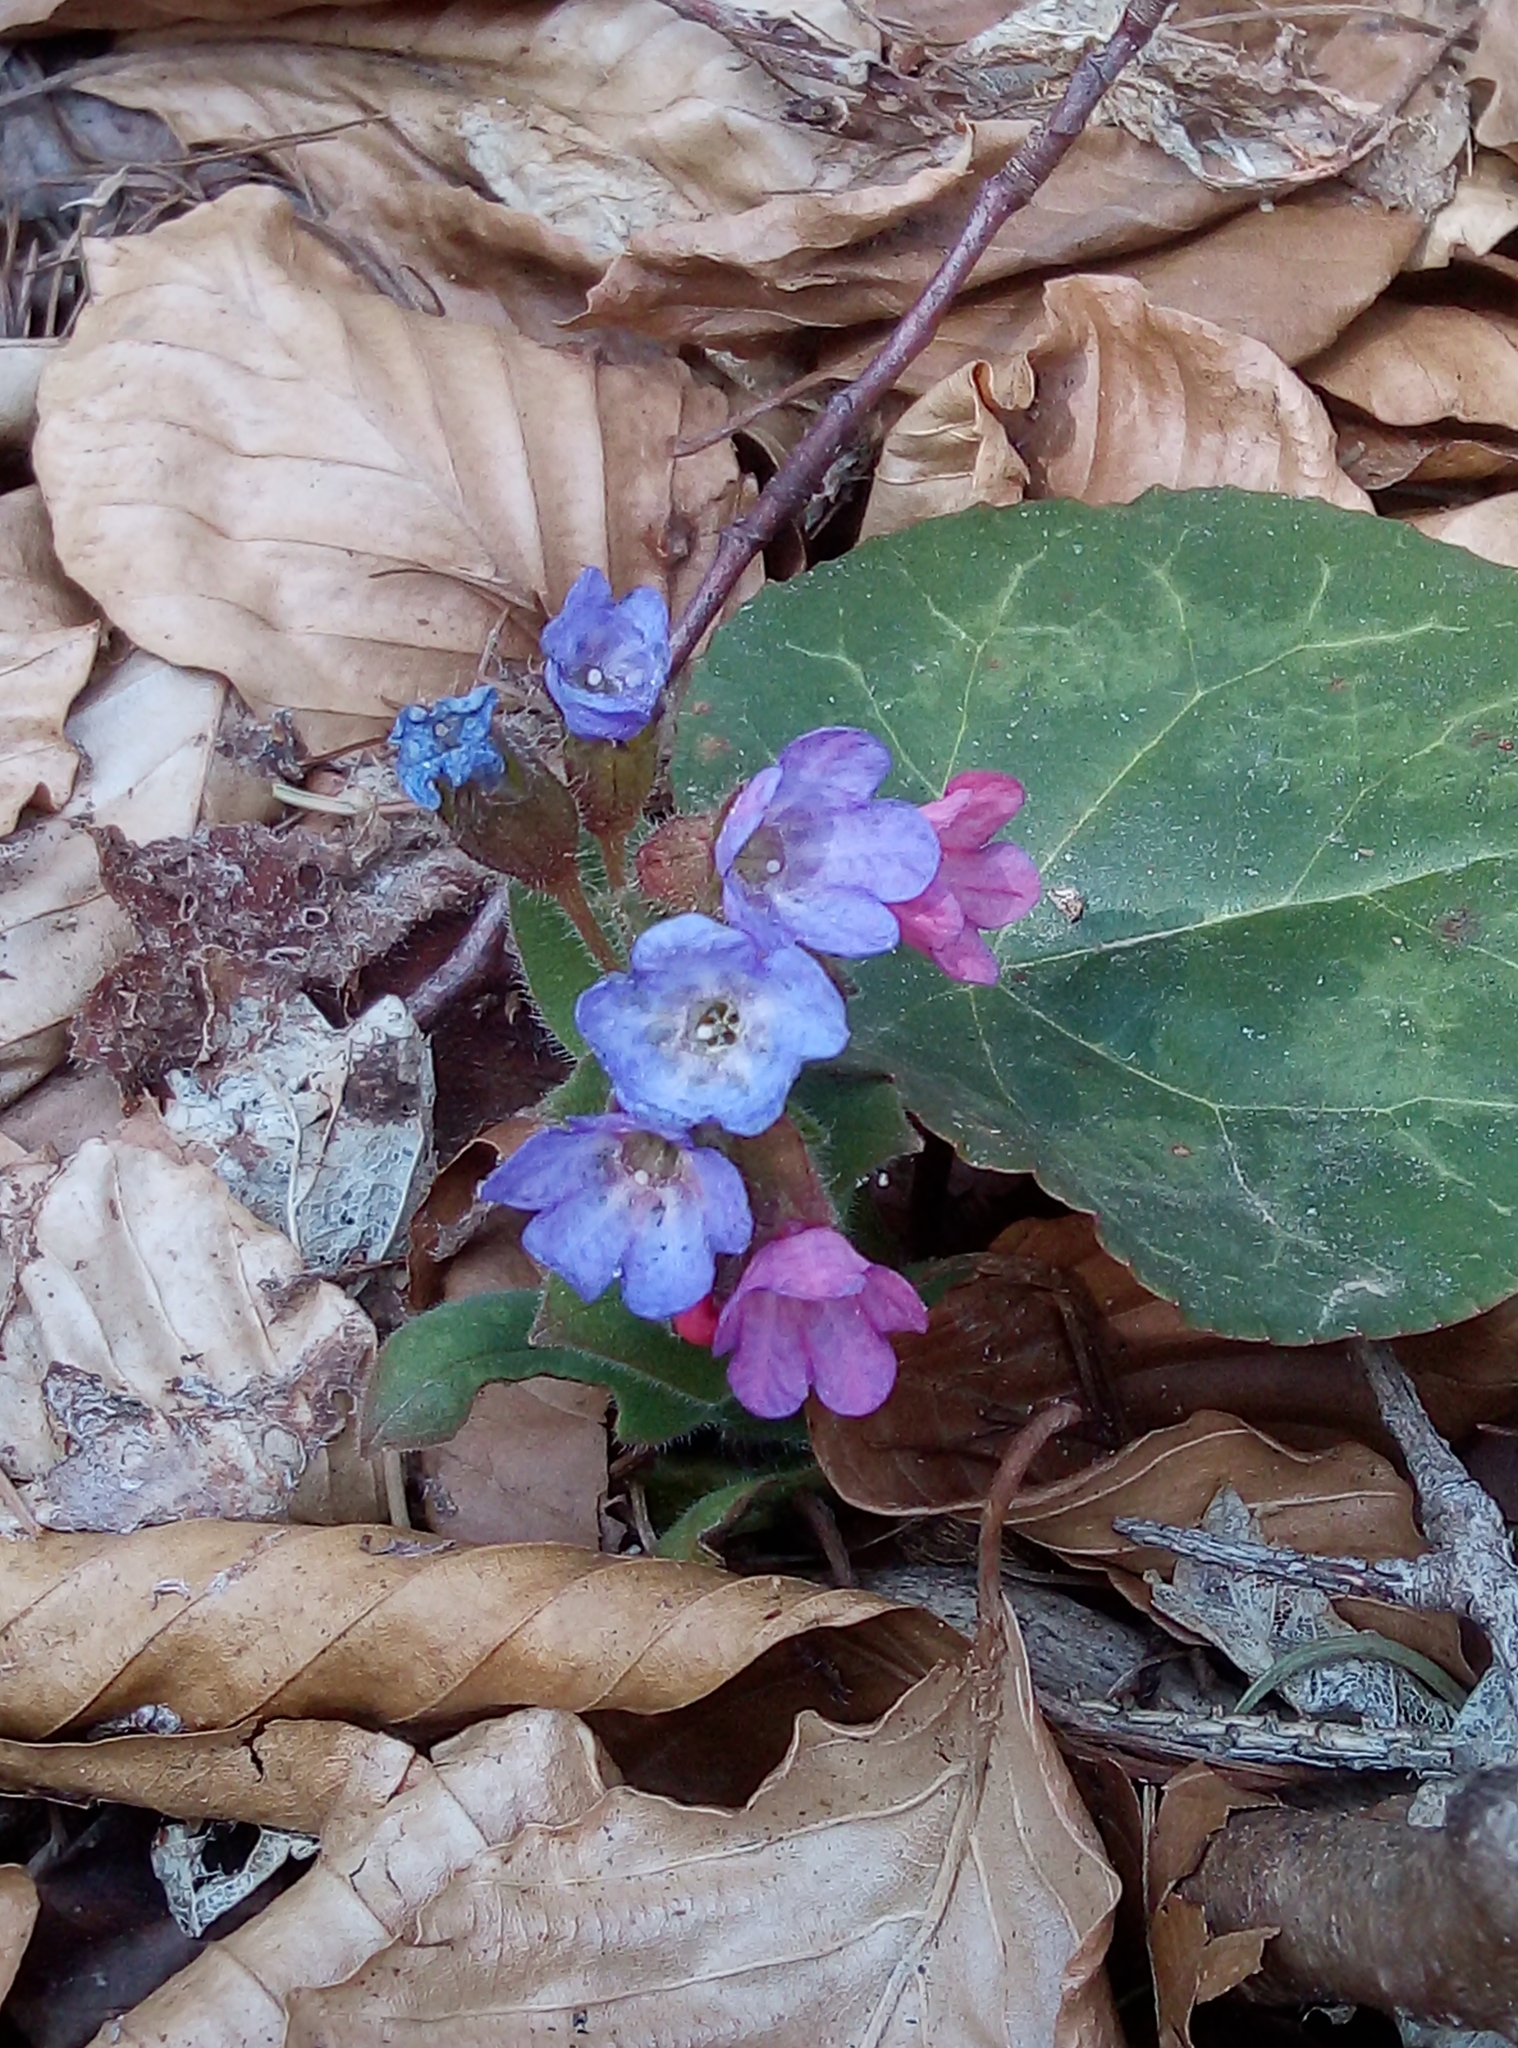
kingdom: Plantae
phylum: Tracheophyta
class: Magnoliopsida
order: Boraginales
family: Boraginaceae
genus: Pulmonaria
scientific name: Pulmonaria officinalis
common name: Lungwort
